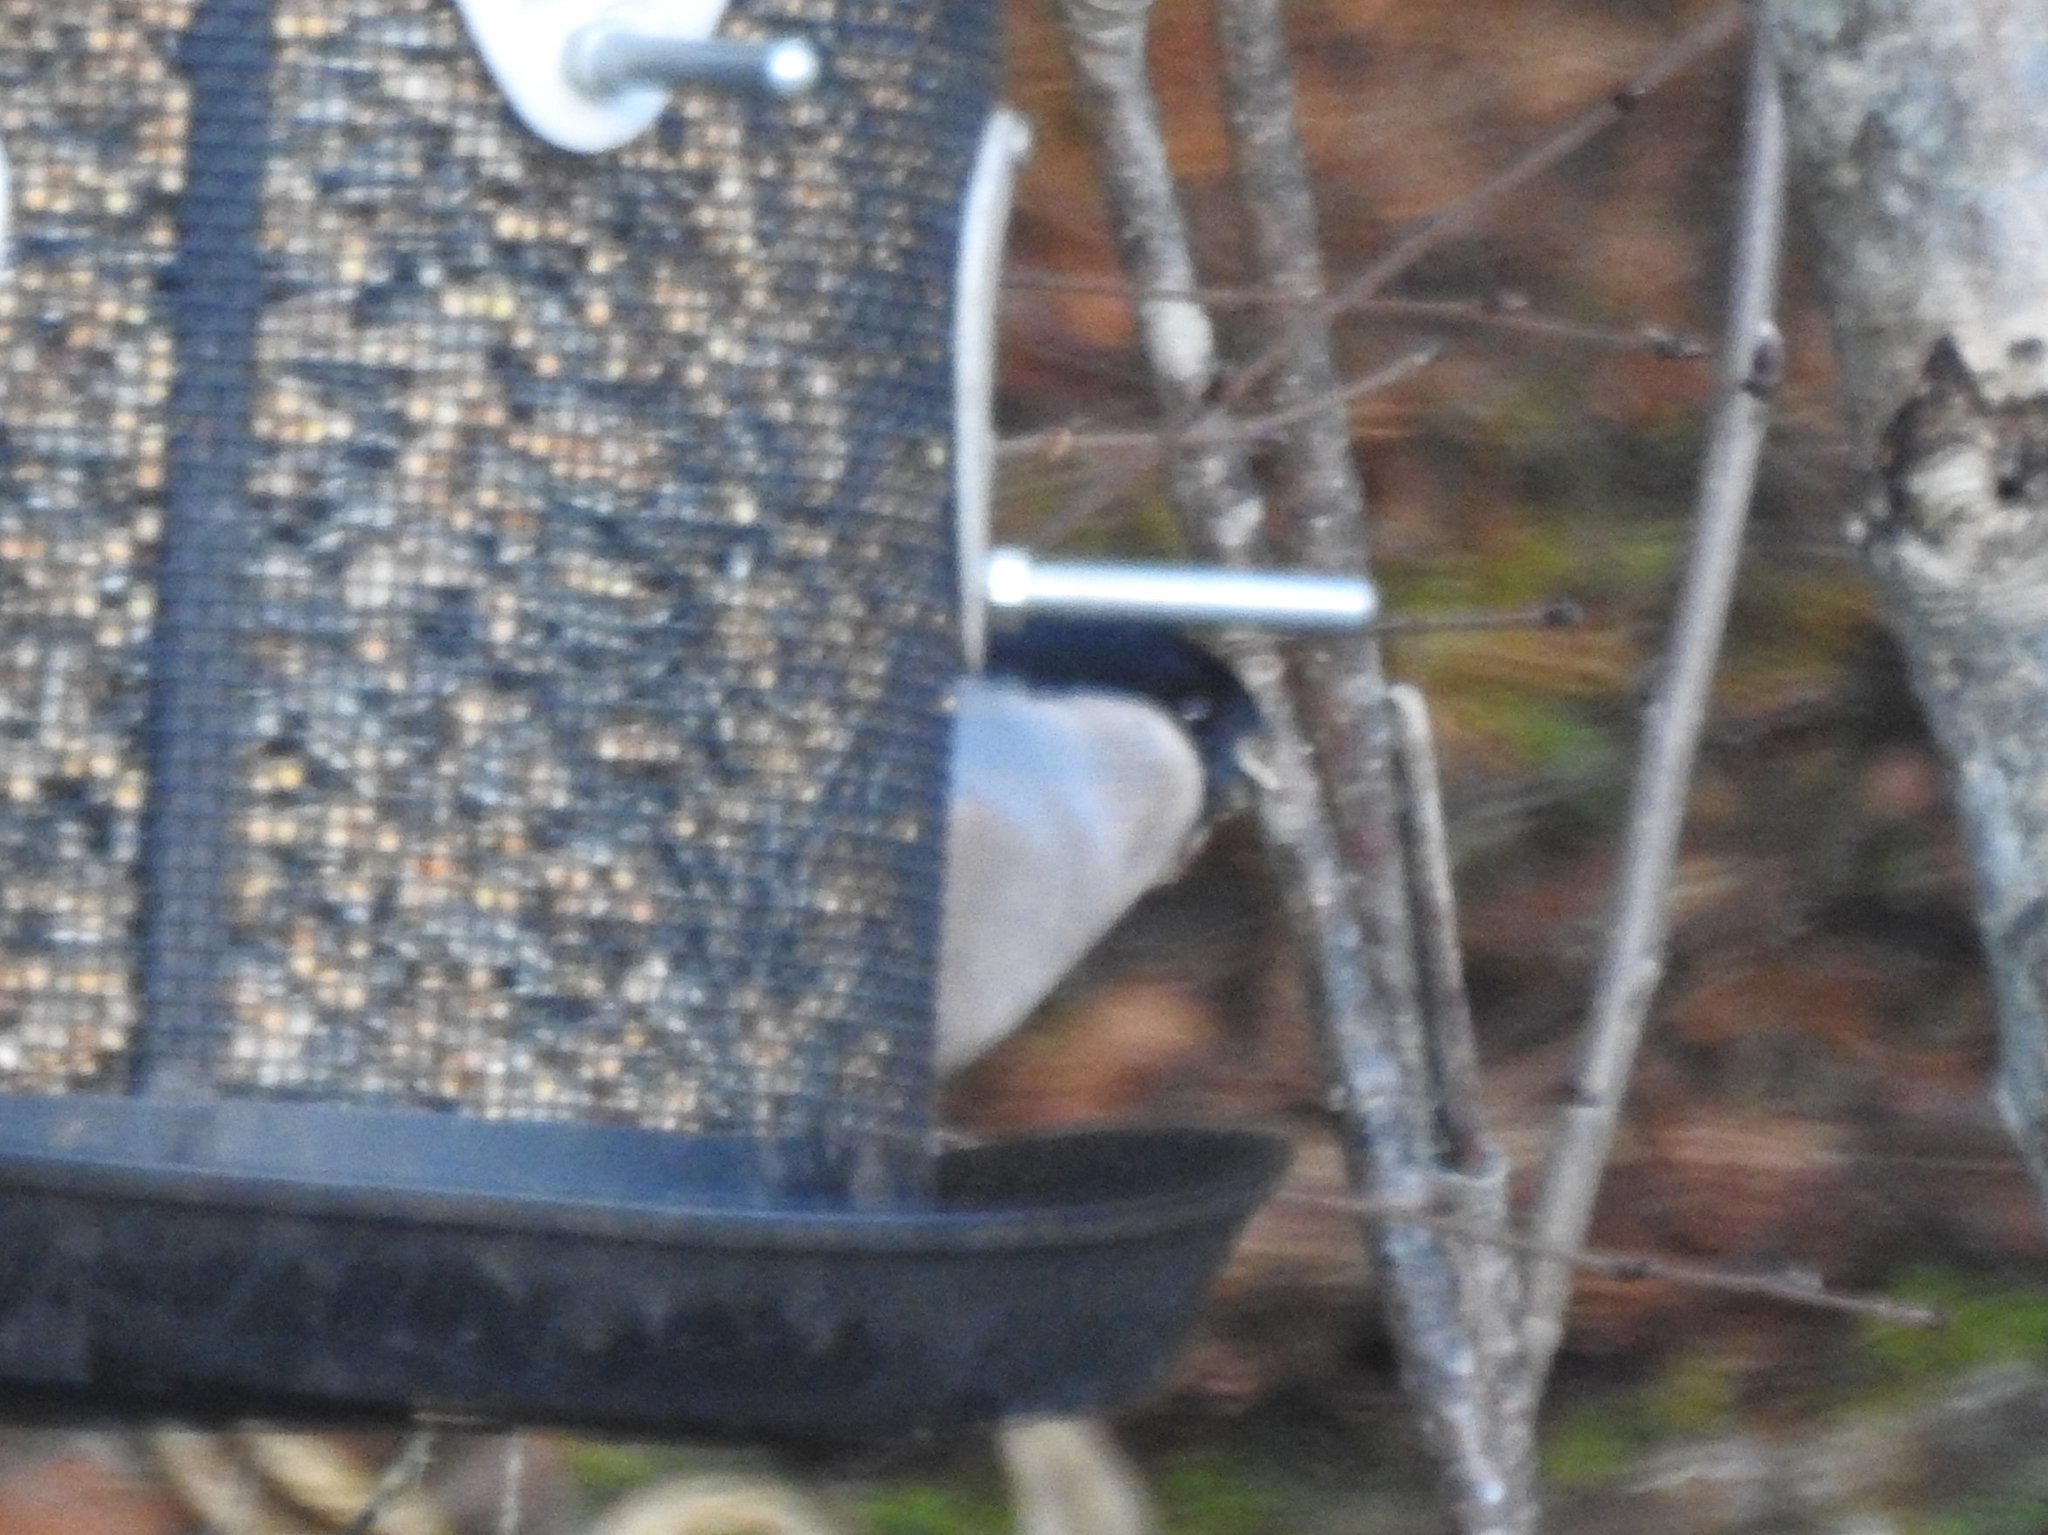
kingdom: Animalia
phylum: Chordata
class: Aves
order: Passeriformes
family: Fringillidae
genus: Pyrrhula
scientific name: Pyrrhula pyrrhula
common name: Eurasian bullfinch
